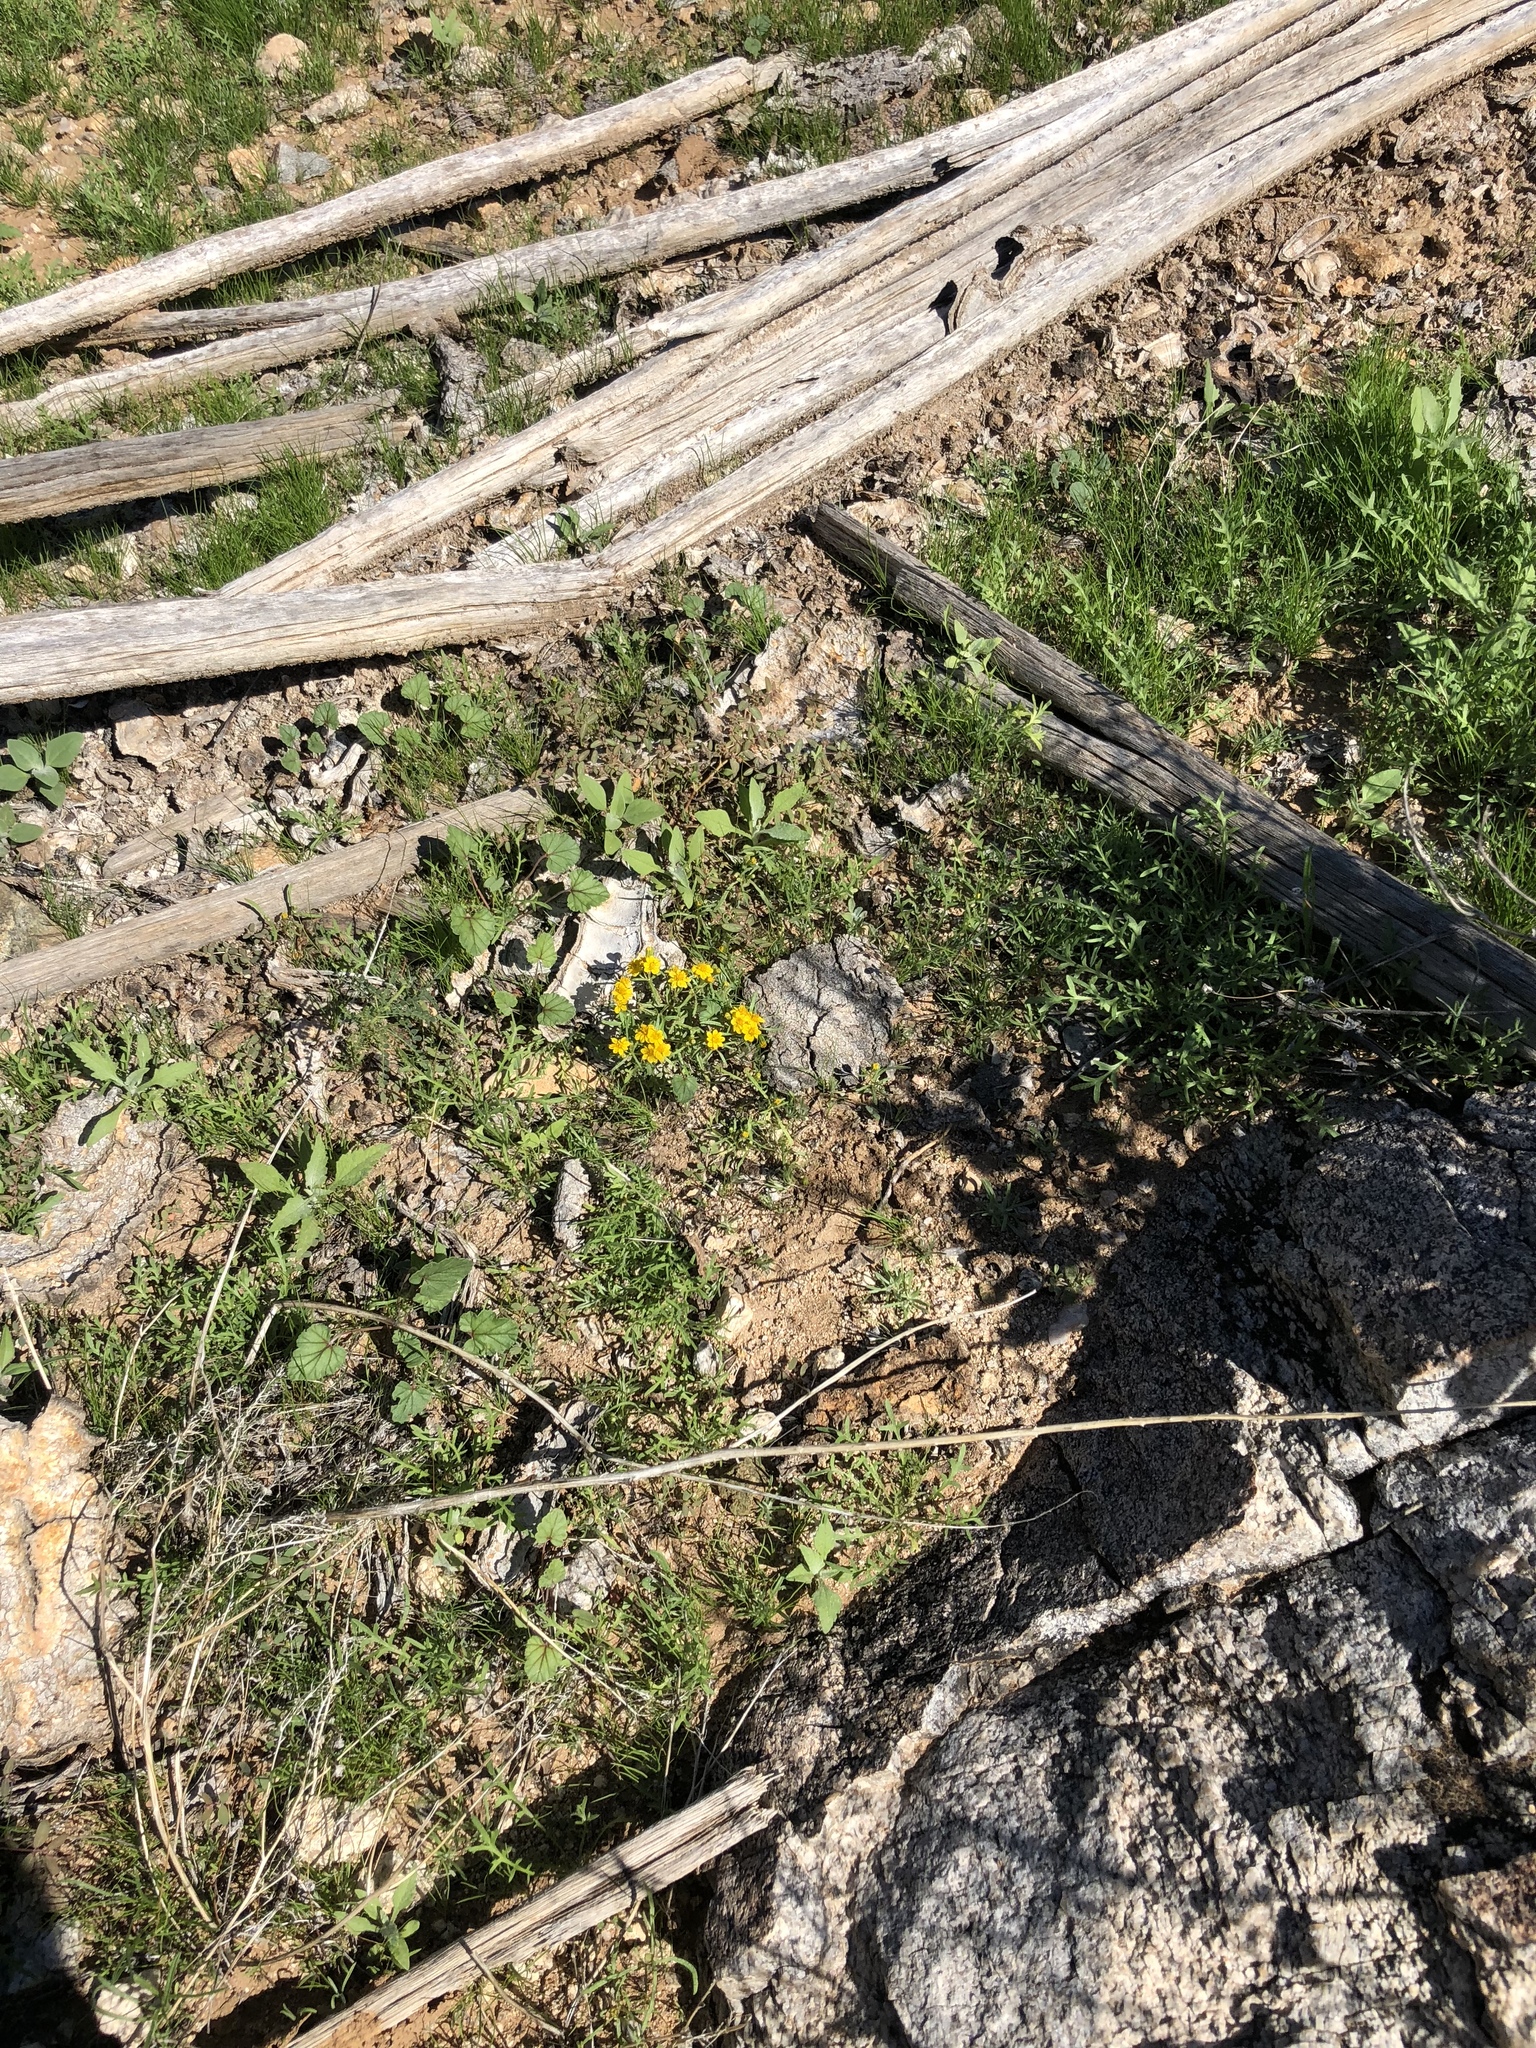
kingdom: Plantae
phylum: Tracheophyta
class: Magnoliopsida
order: Asterales
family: Asteraceae
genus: Pectis
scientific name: Pectis papposa
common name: Many-bristle chinchweed
